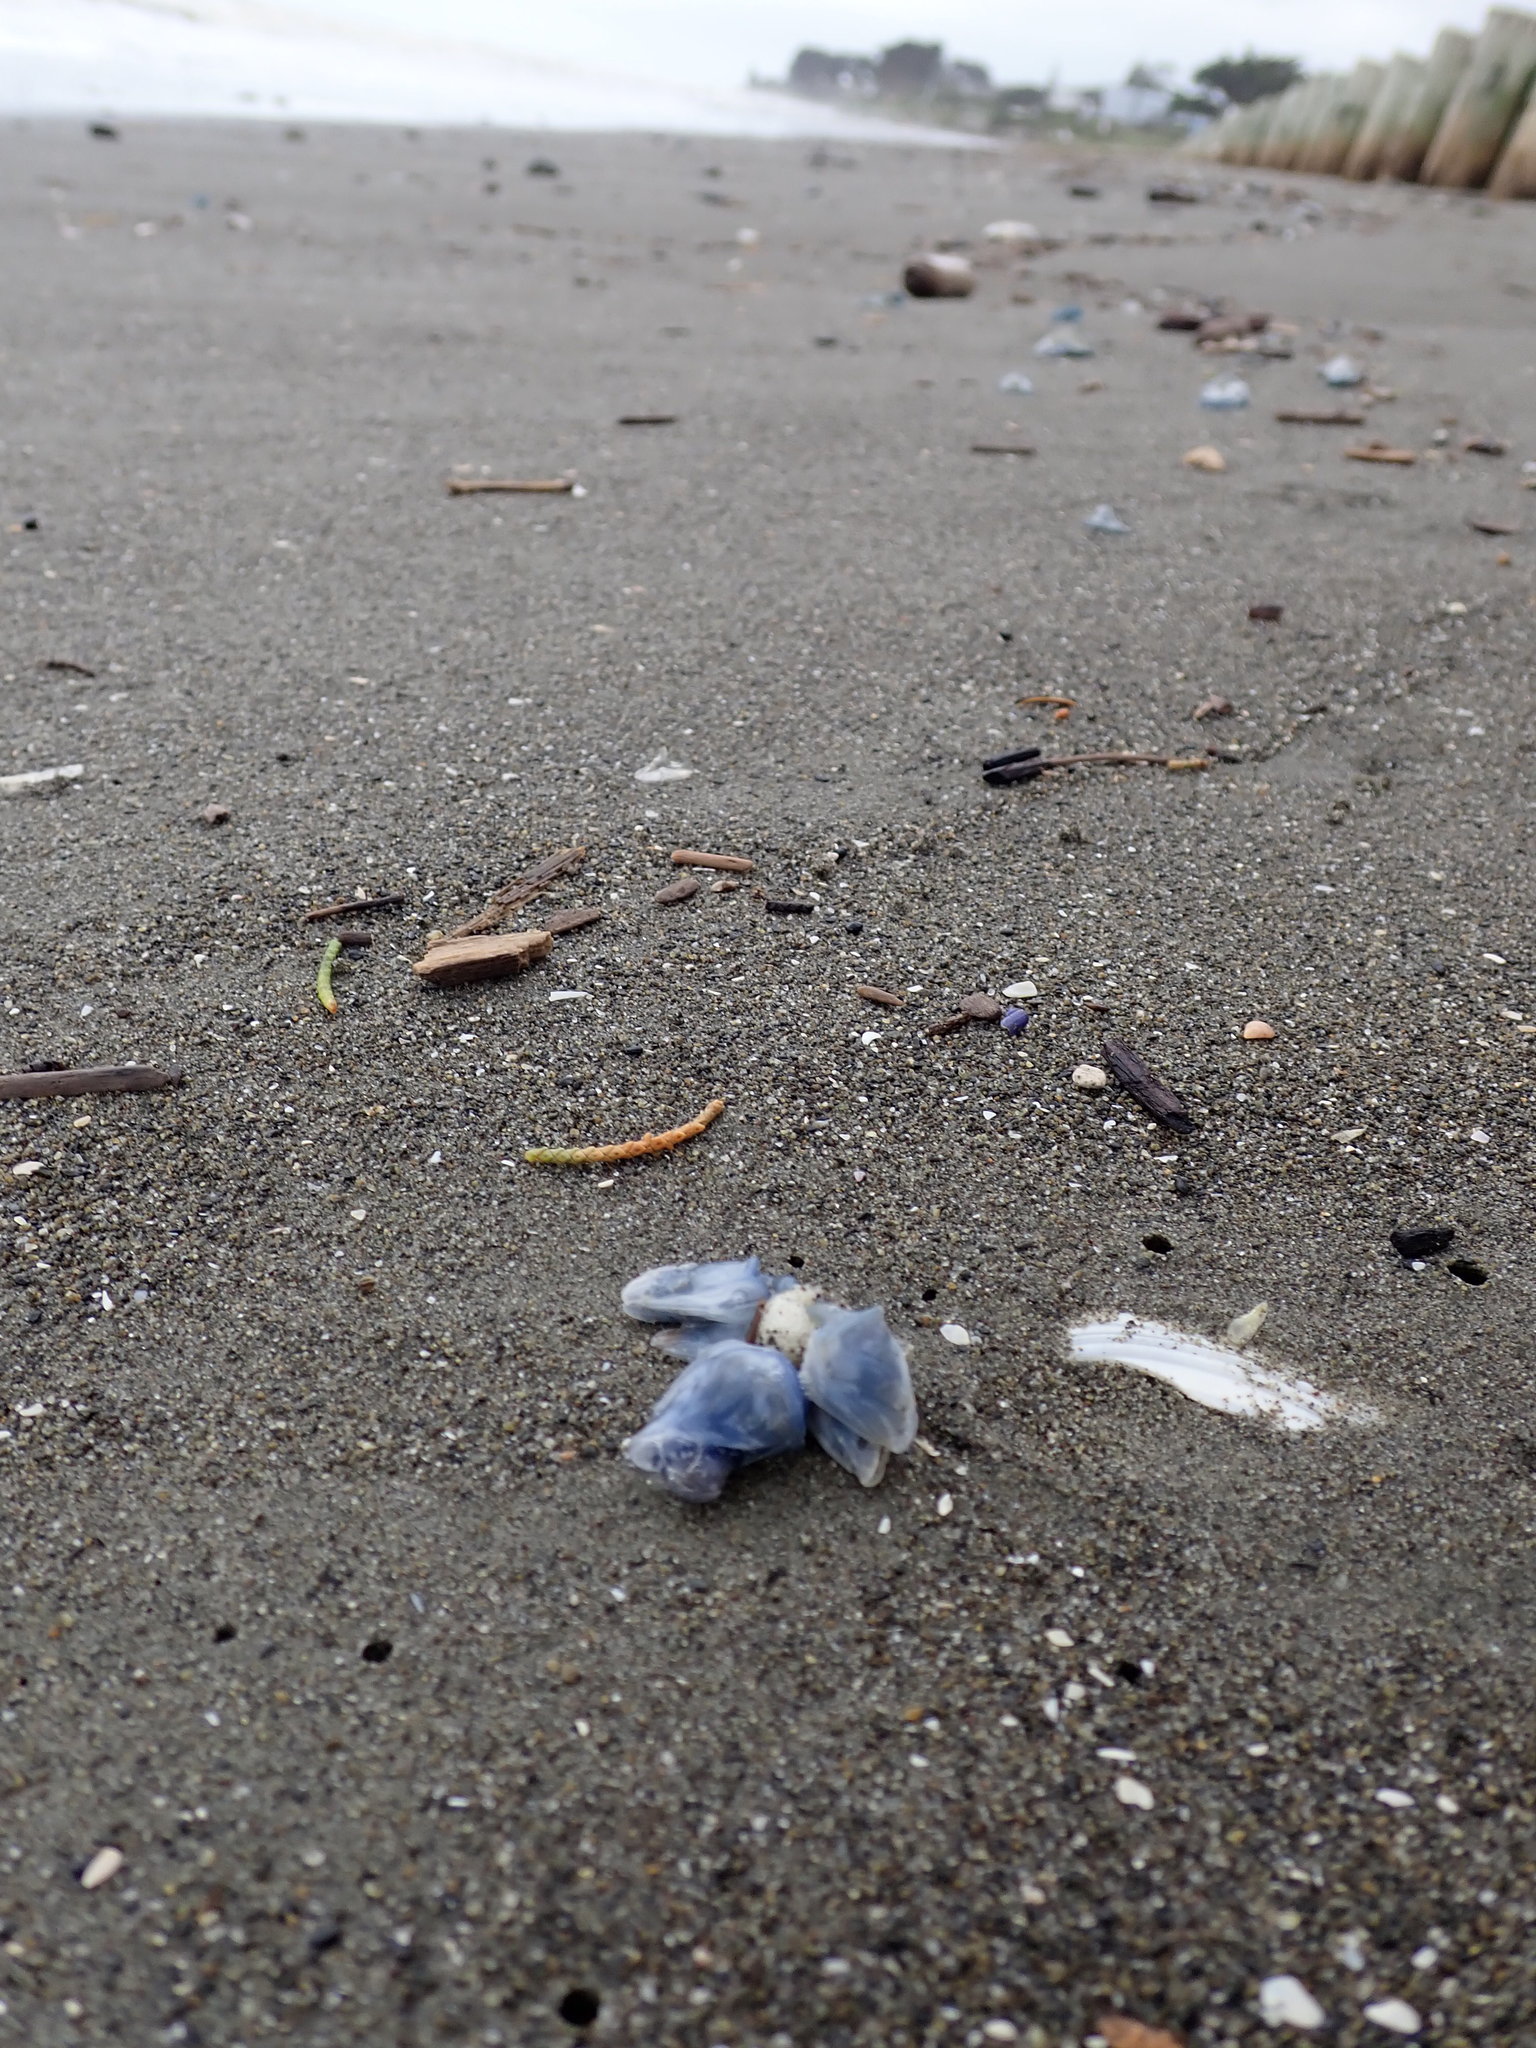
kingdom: Animalia
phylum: Arthropoda
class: Maxillopoda
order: Pedunculata
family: Lepadidae
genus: Dosima
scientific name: Dosima fascicularis
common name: Buoy barnacle
